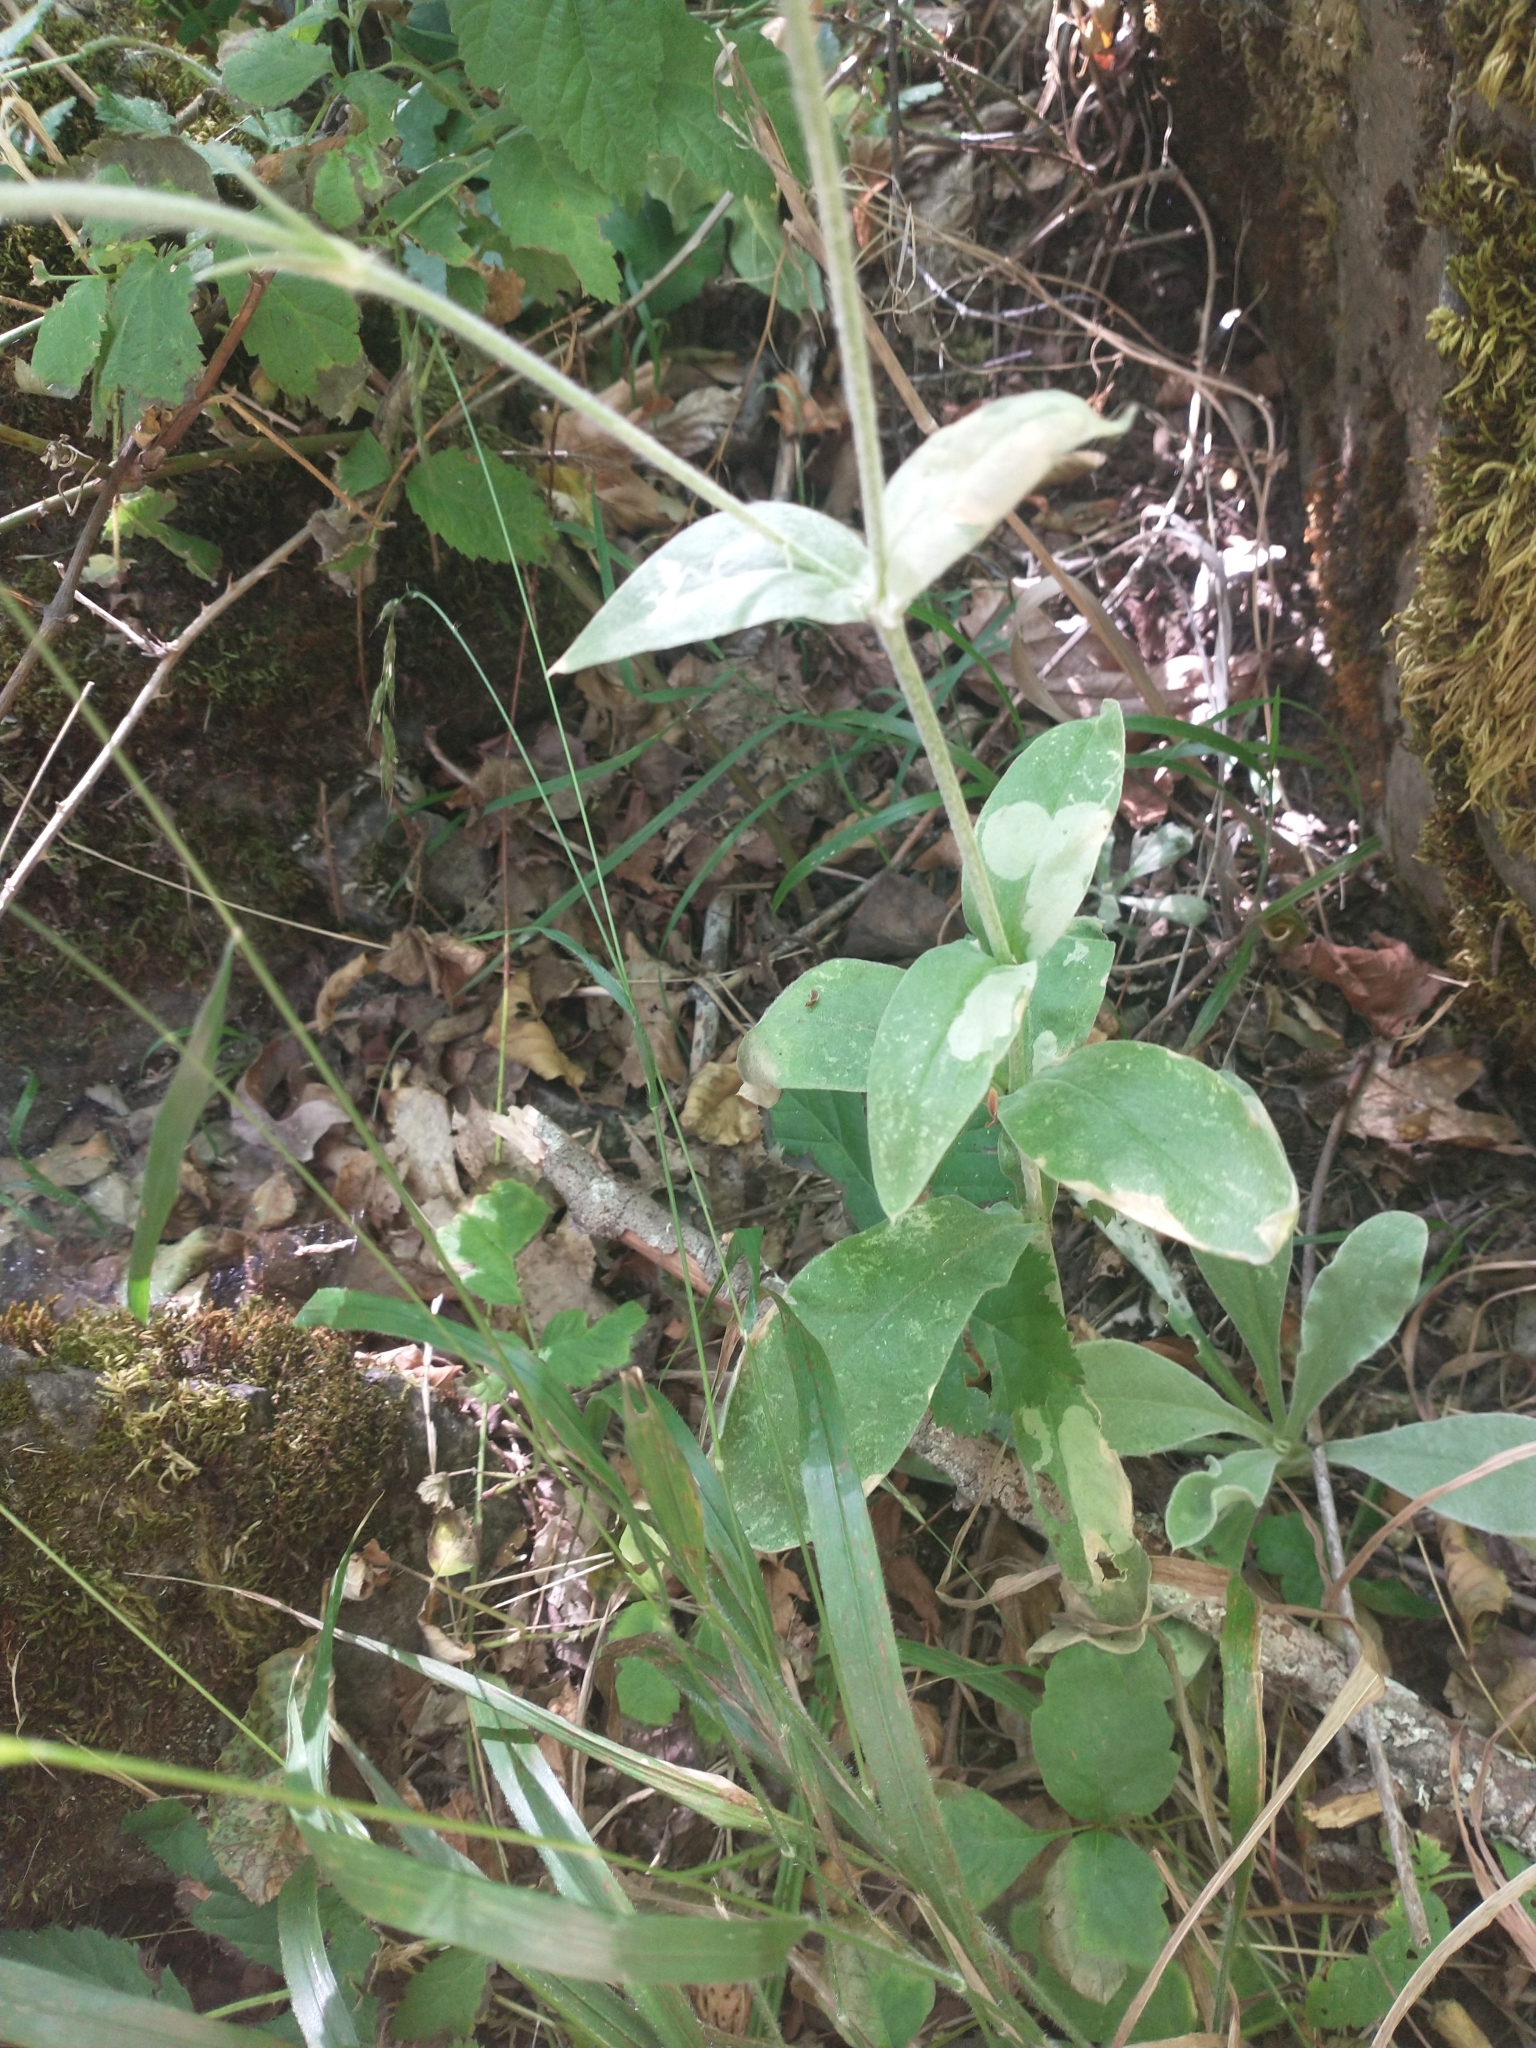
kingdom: Plantae
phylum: Tracheophyta
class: Magnoliopsida
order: Caryophyllales
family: Caryophyllaceae
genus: Silene
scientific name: Silene coronaria
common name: Rose campion
